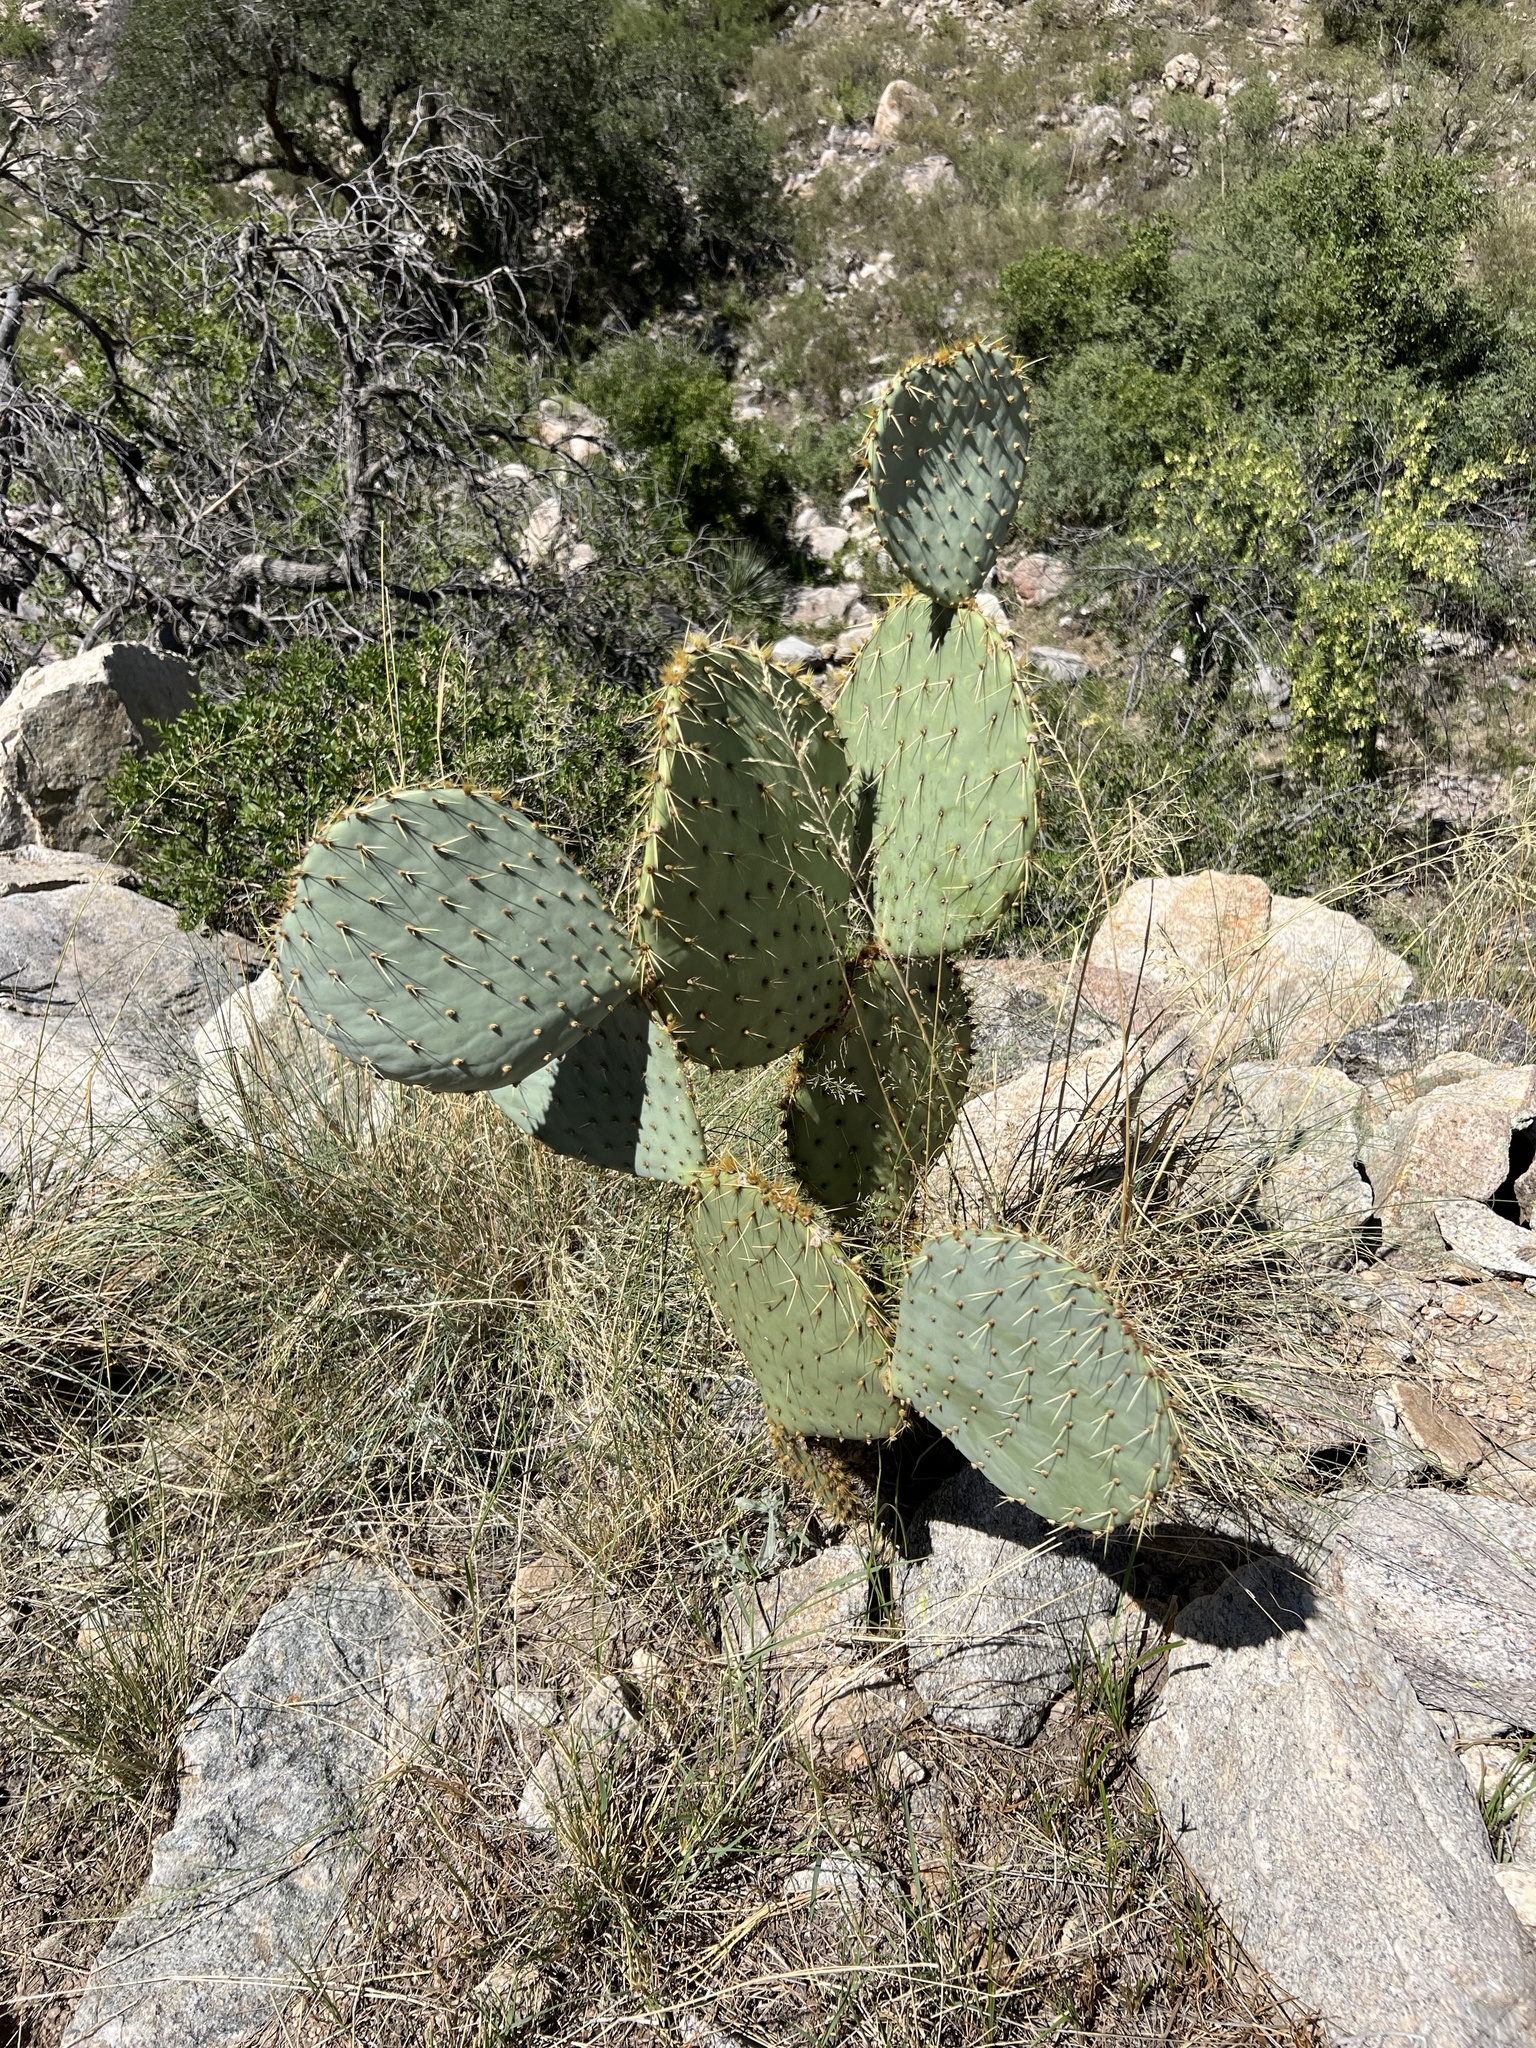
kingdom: Plantae
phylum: Tracheophyta
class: Magnoliopsida
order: Caryophyllales
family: Cactaceae
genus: Opuntia
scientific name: Opuntia chlorotica
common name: Dollar-joint prickly-pear
